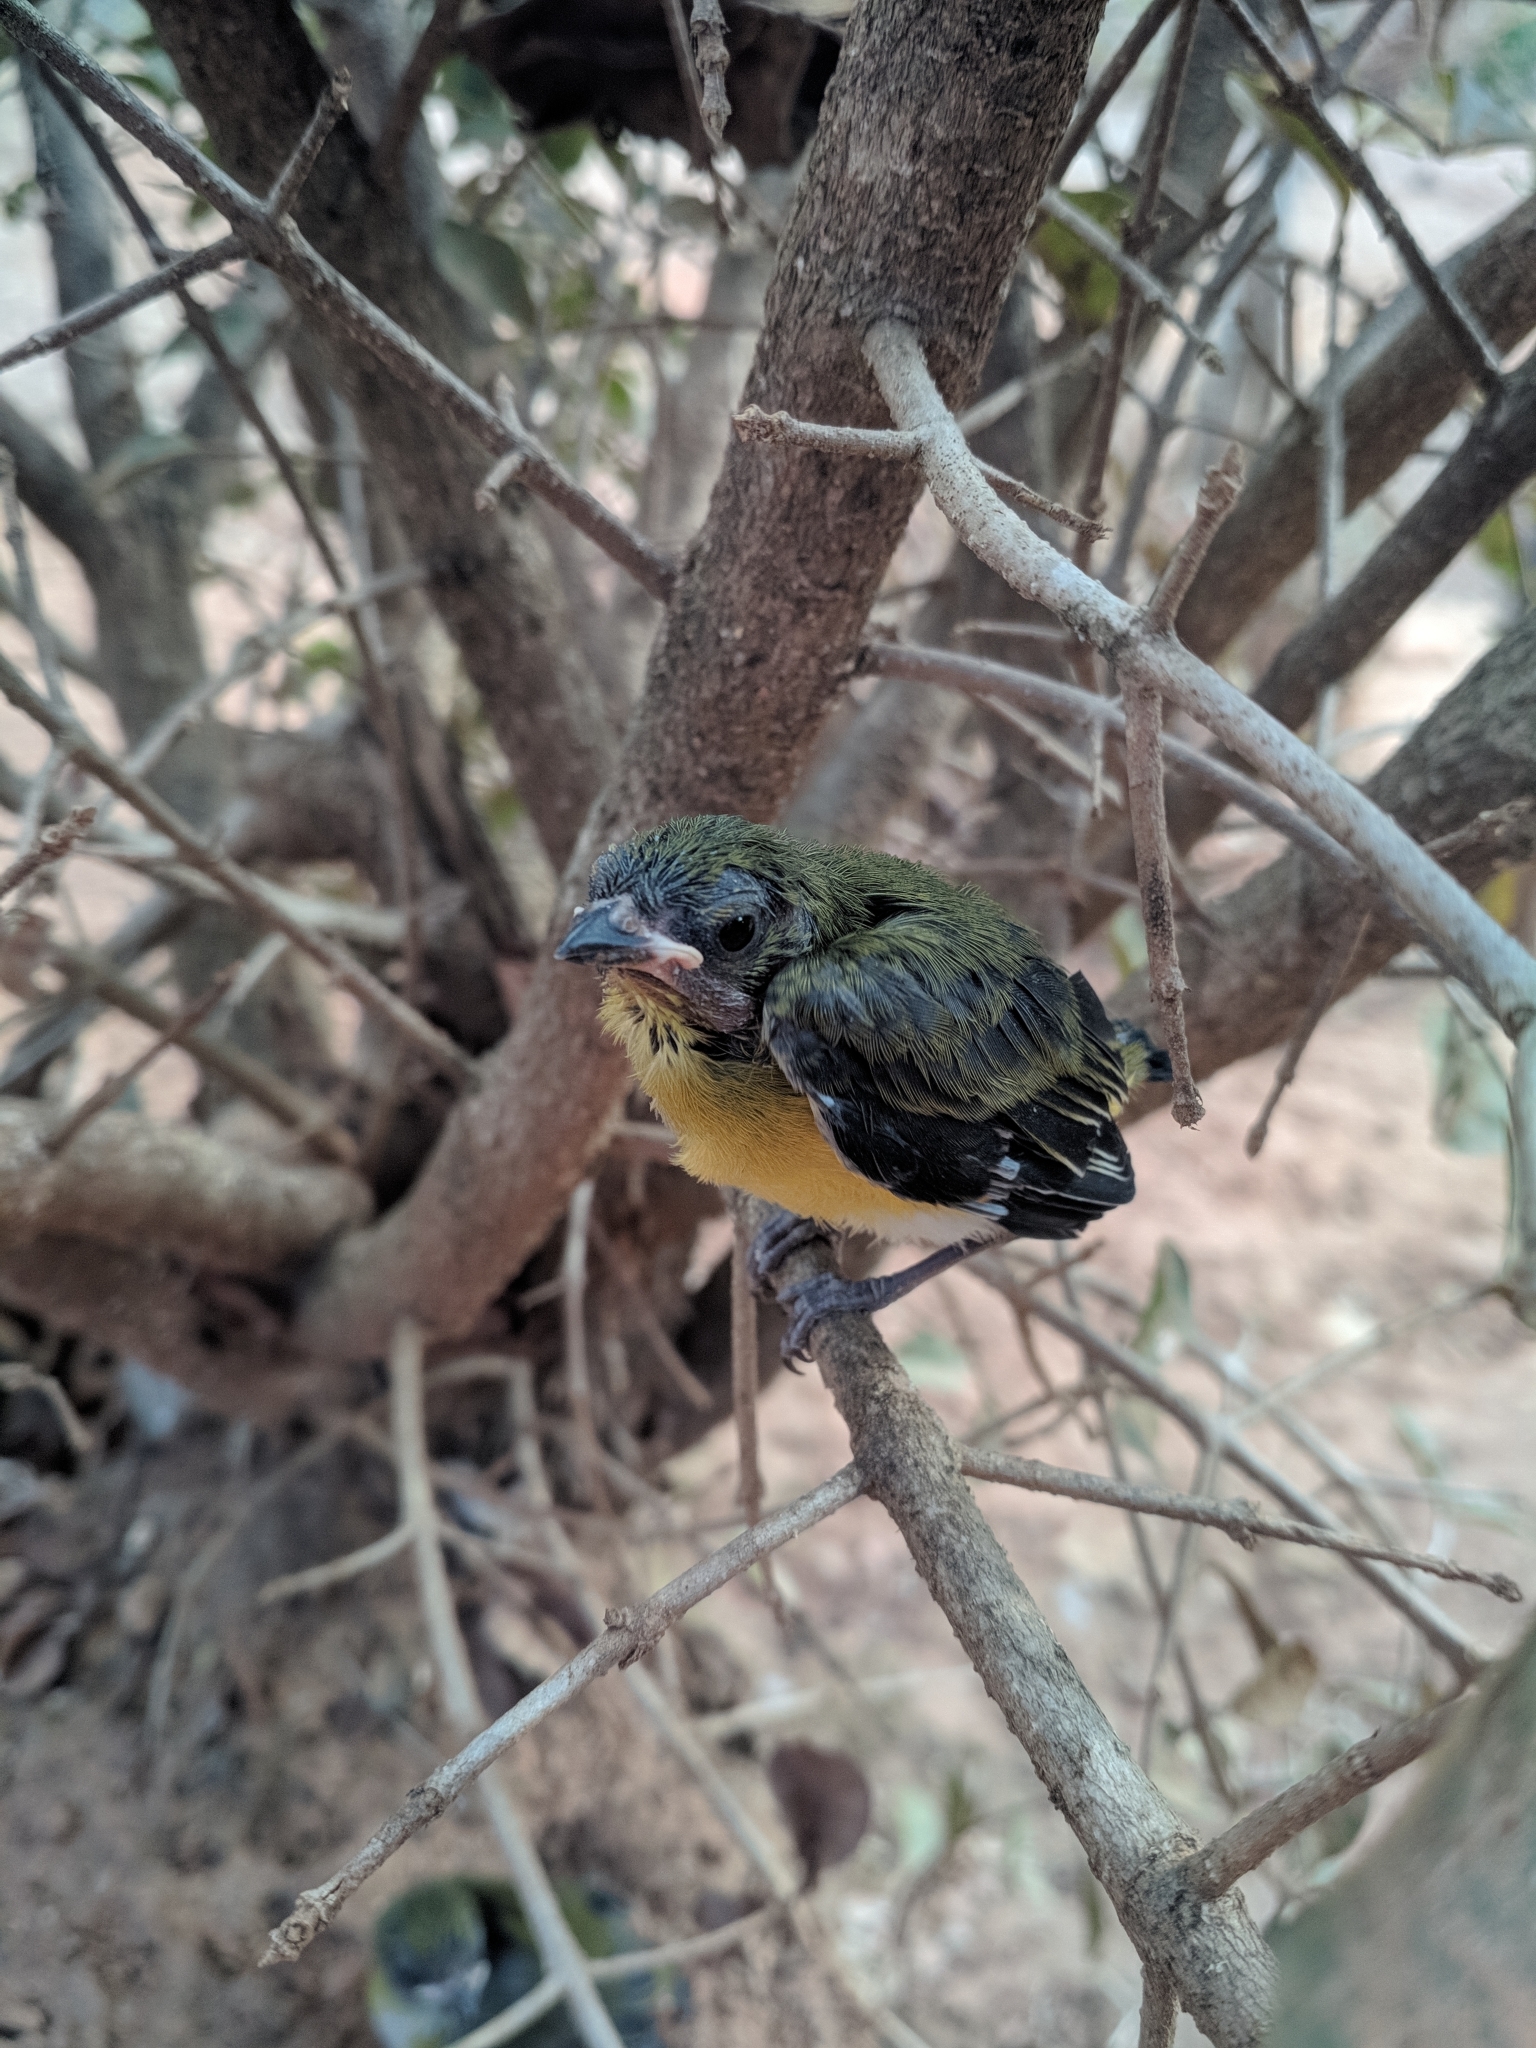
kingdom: Animalia
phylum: Chordata
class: Aves
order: Passeriformes
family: Thraupidae
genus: Coereba
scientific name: Coereba flaveola
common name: Bananaquit
